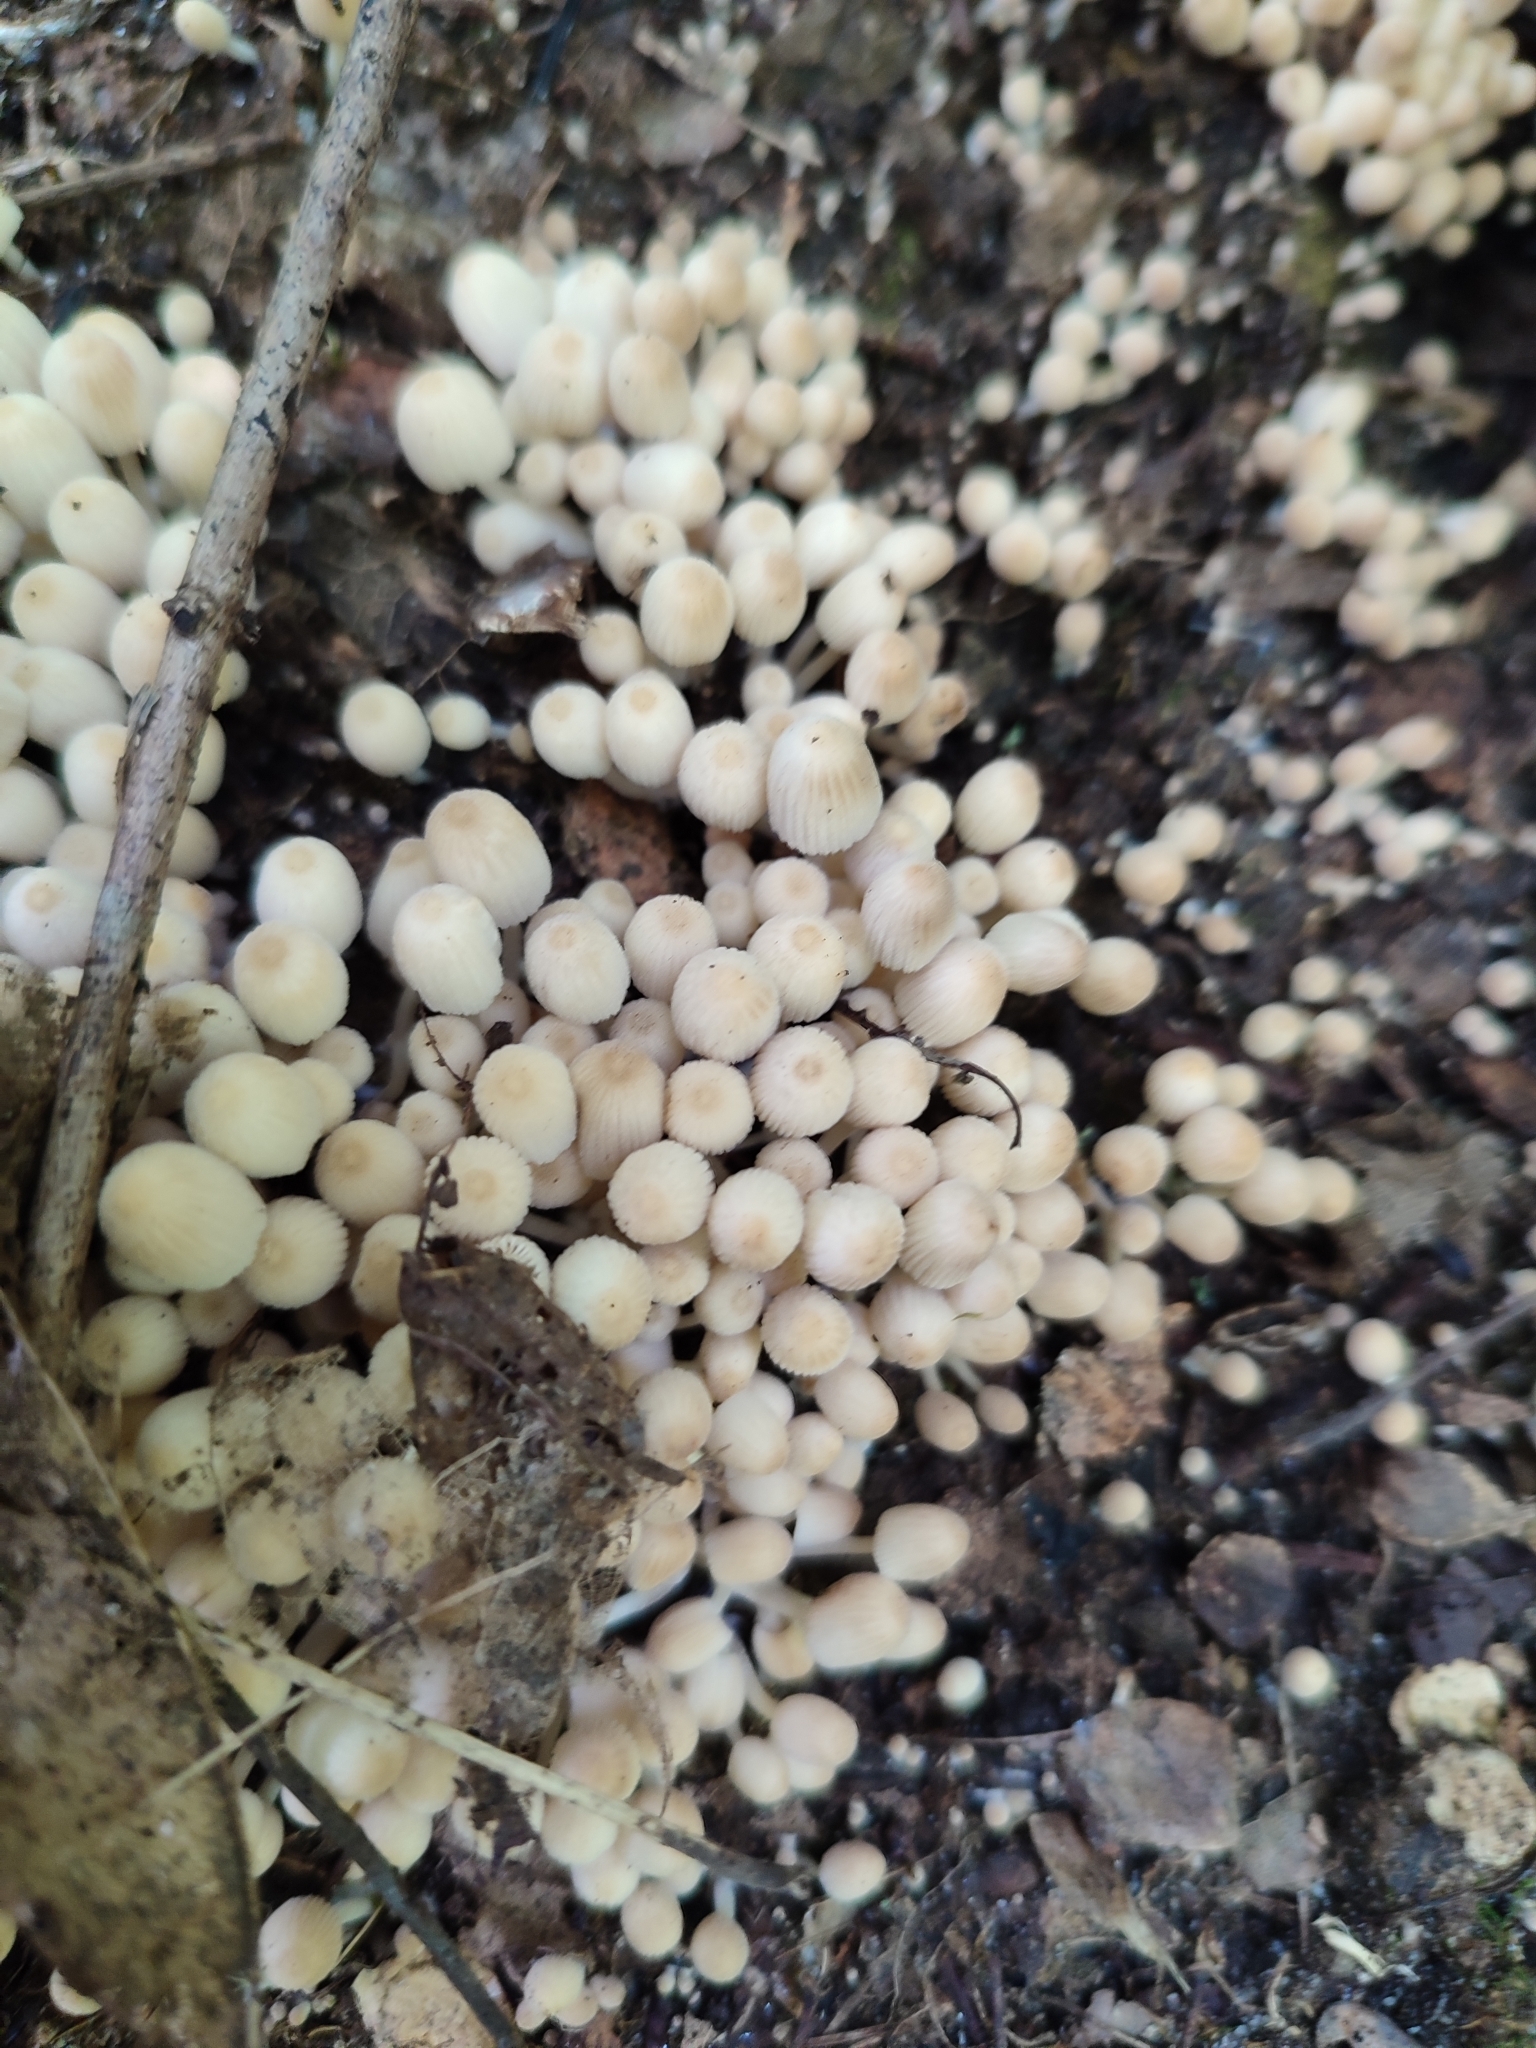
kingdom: Fungi
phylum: Basidiomycota
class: Agaricomycetes
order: Agaricales
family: Psathyrellaceae
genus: Coprinellus
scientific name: Coprinellus disseminatus
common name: Fairies' bonnets
